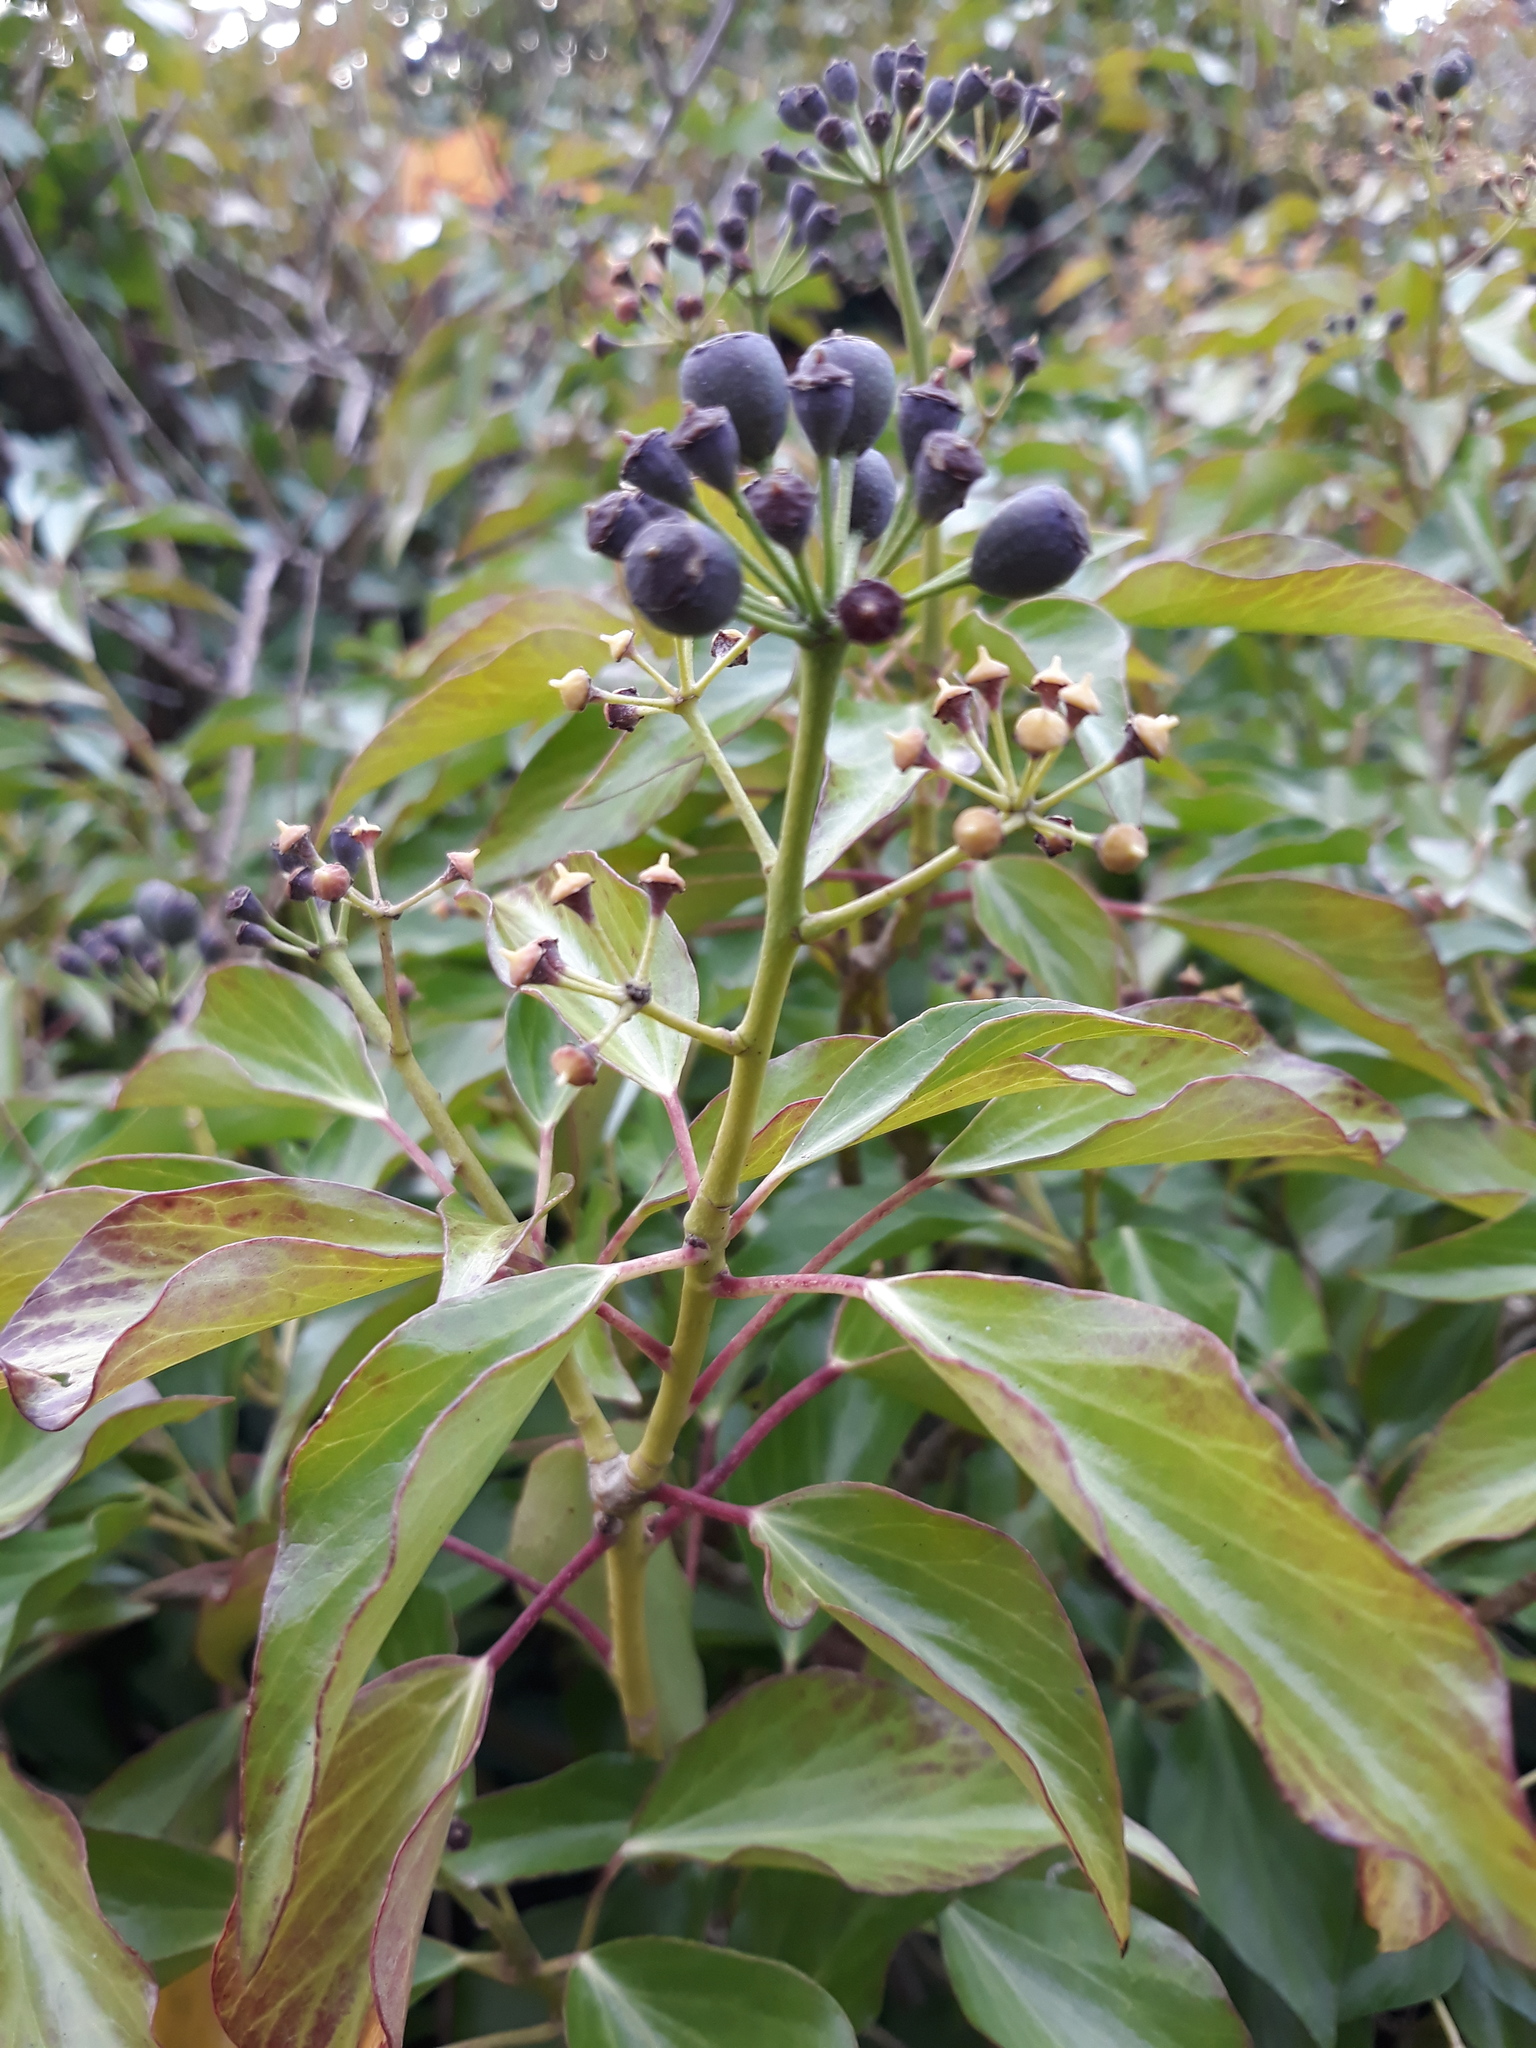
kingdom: Plantae
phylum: Tracheophyta
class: Magnoliopsida
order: Apiales
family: Araliaceae
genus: Hedera
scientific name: Hedera helix
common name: Ivy
